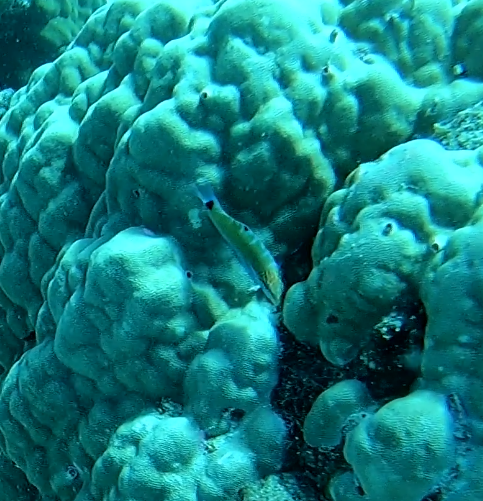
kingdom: Animalia
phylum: Chordata
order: Perciformes
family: Labridae
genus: Thalassoma
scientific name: Thalassoma lunare
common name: Blue wrasse
